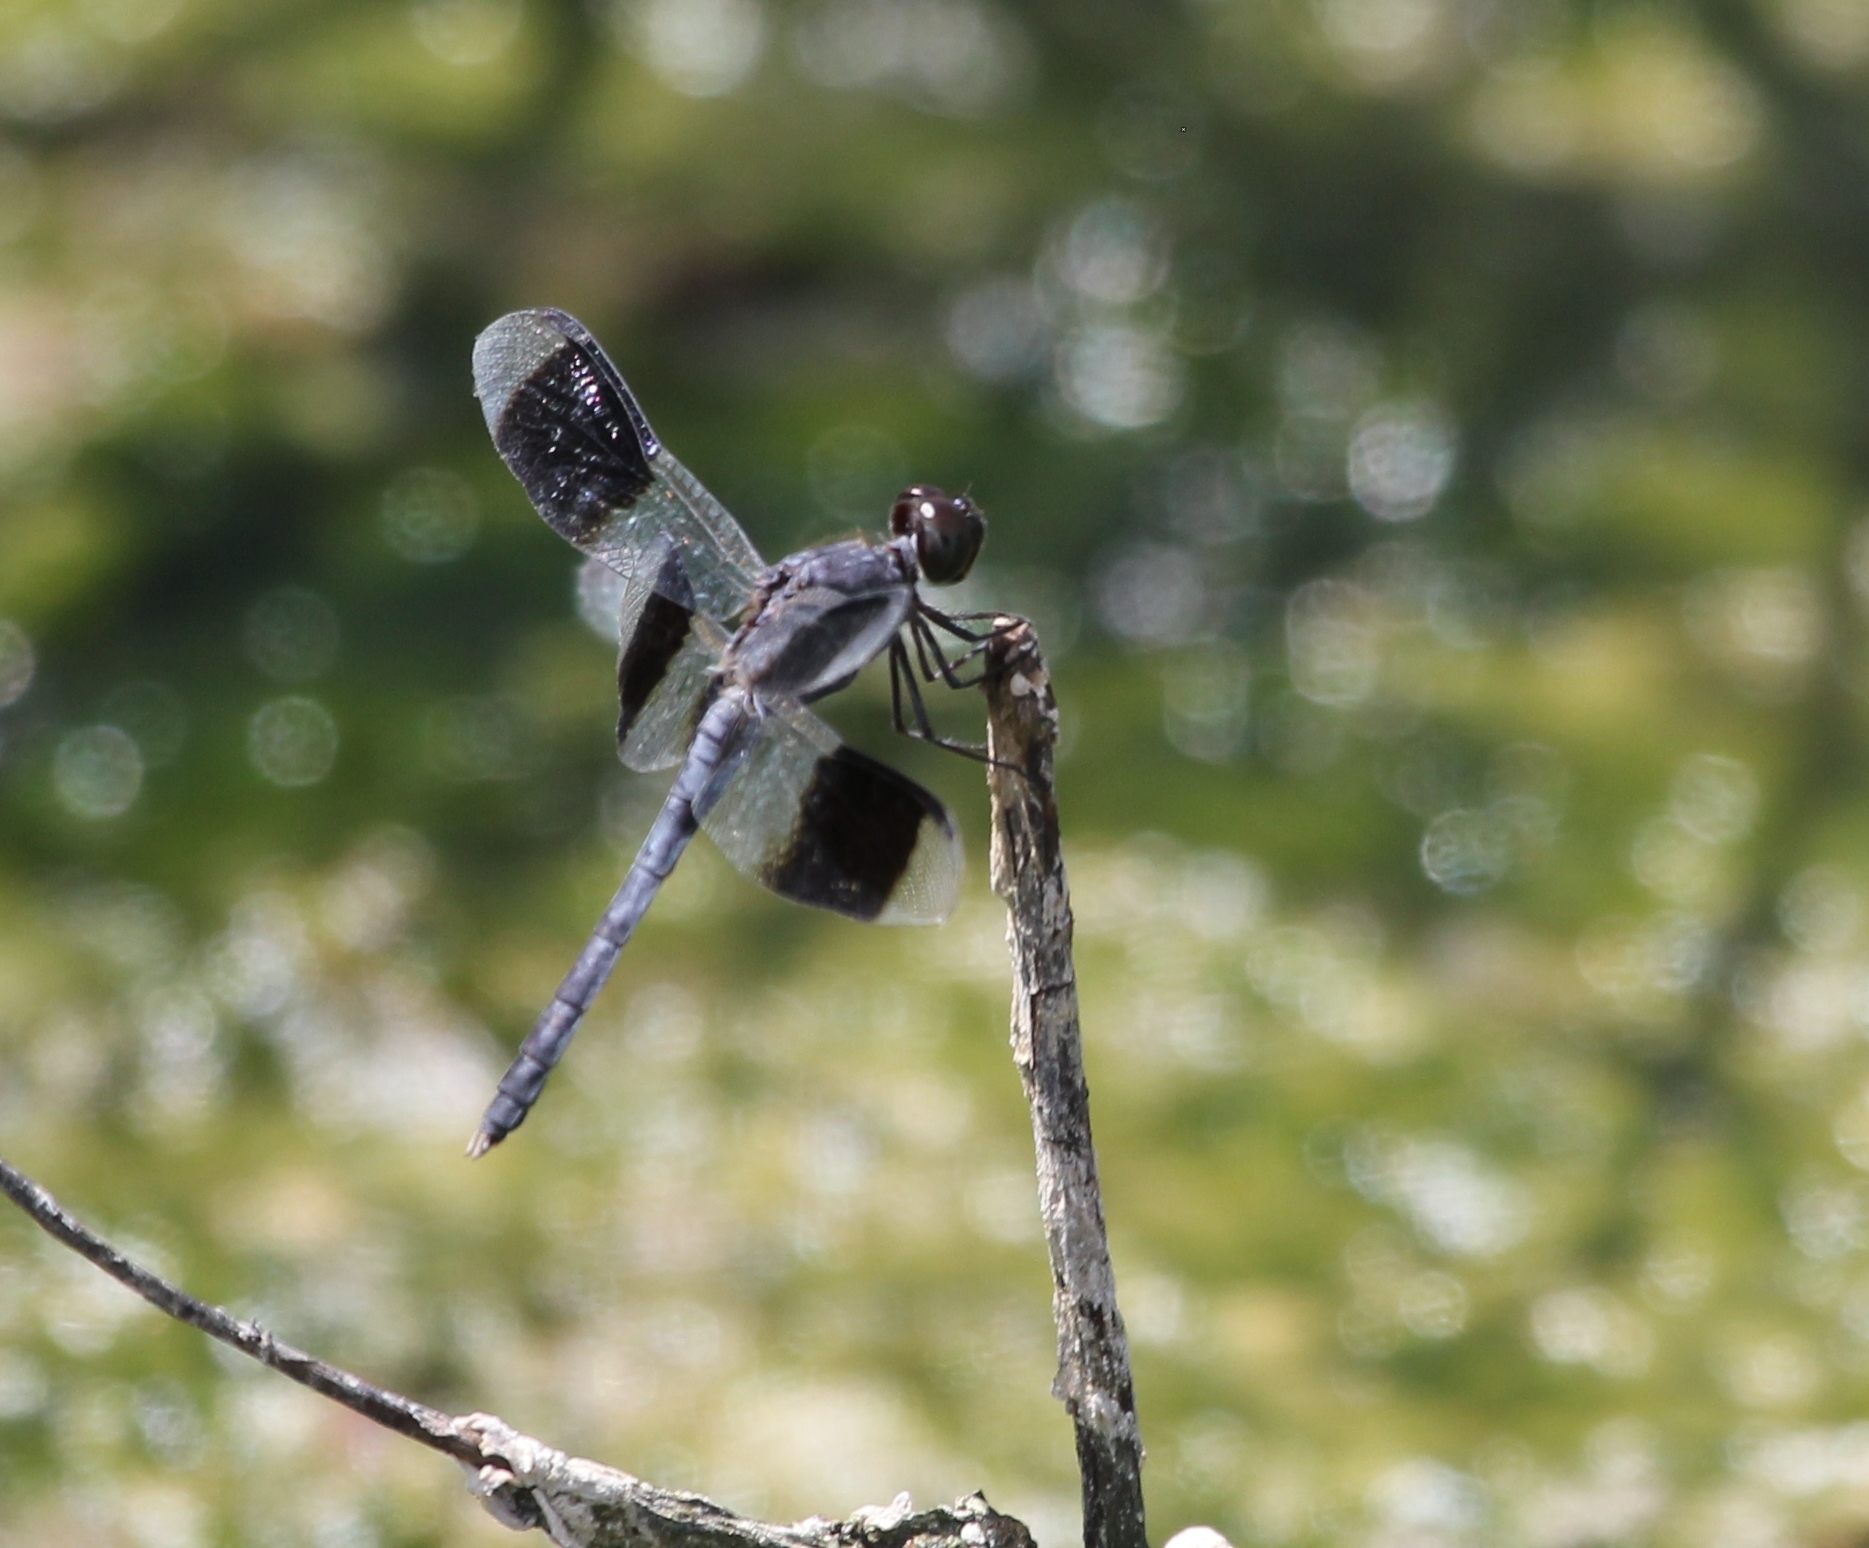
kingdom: Animalia
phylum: Arthropoda
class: Insecta
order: Odonata
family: Libellulidae
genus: Erythrodiplax
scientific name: Erythrodiplax umbrata
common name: Band-winged dragonlet
